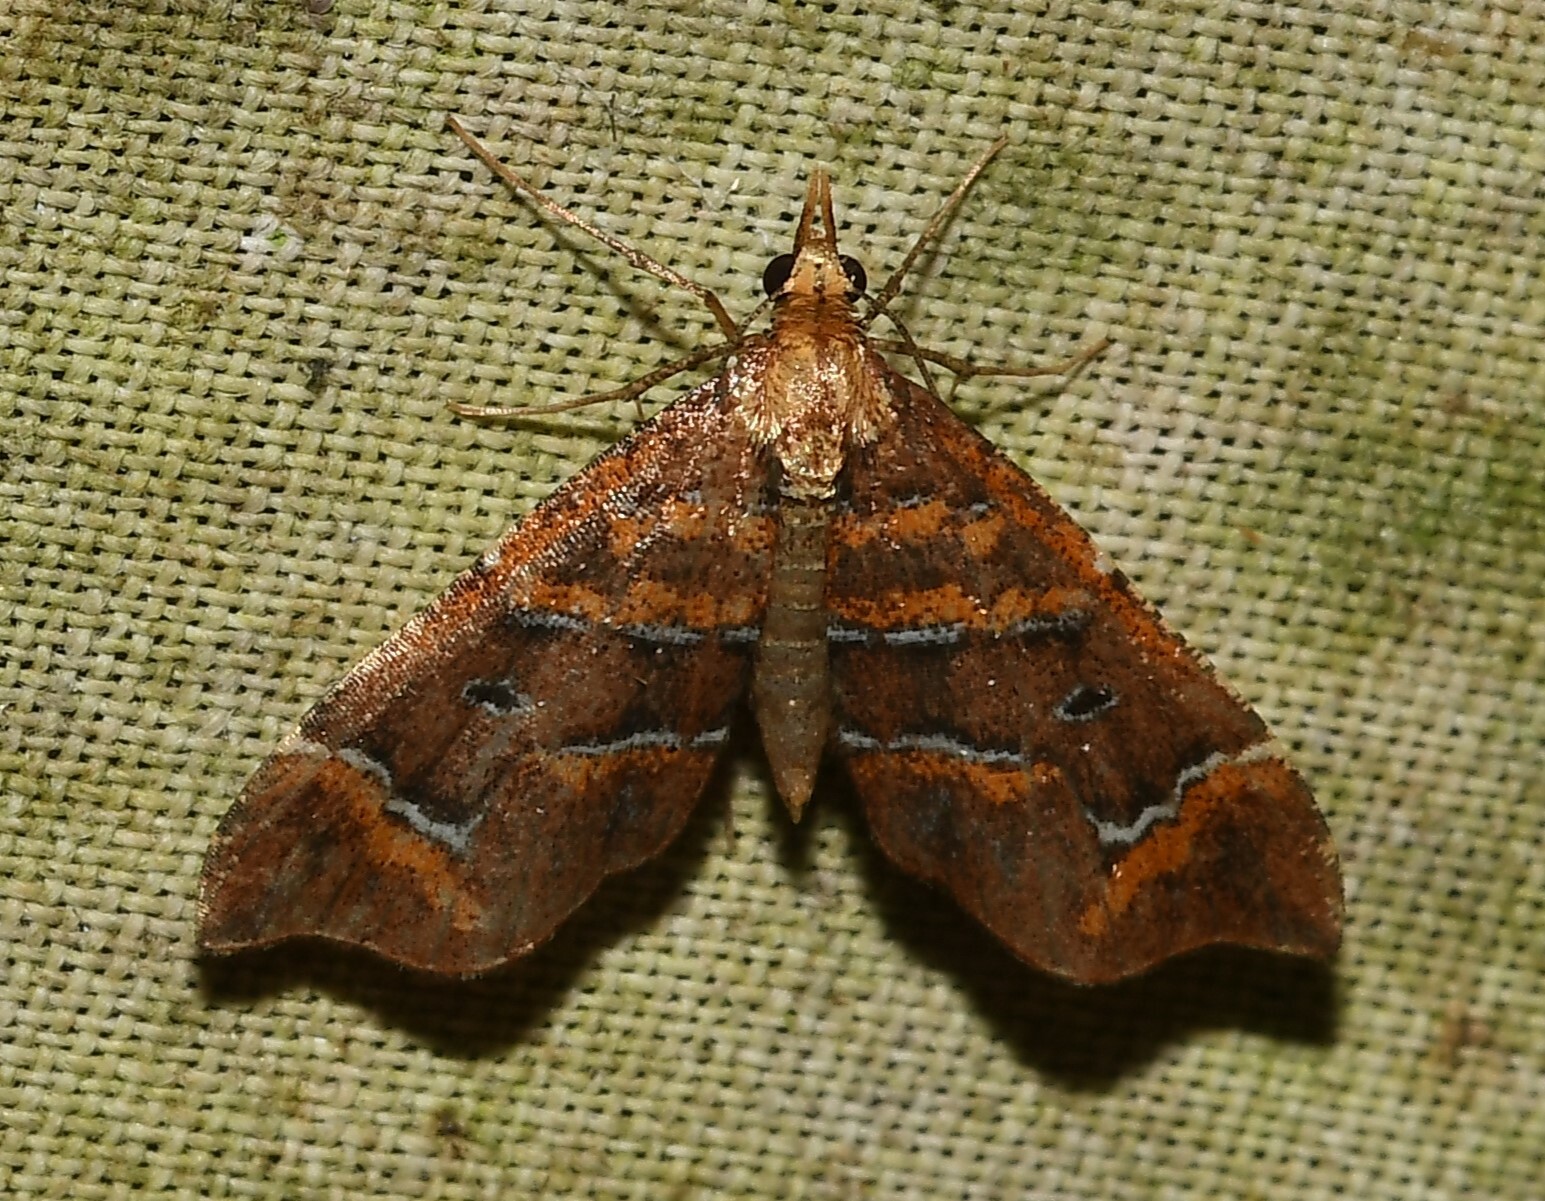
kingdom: Animalia
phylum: Arthropoda
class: Insecta
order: Lepidoptera
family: Geometridae
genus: Psaliodes
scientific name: Psaliodes miniata
